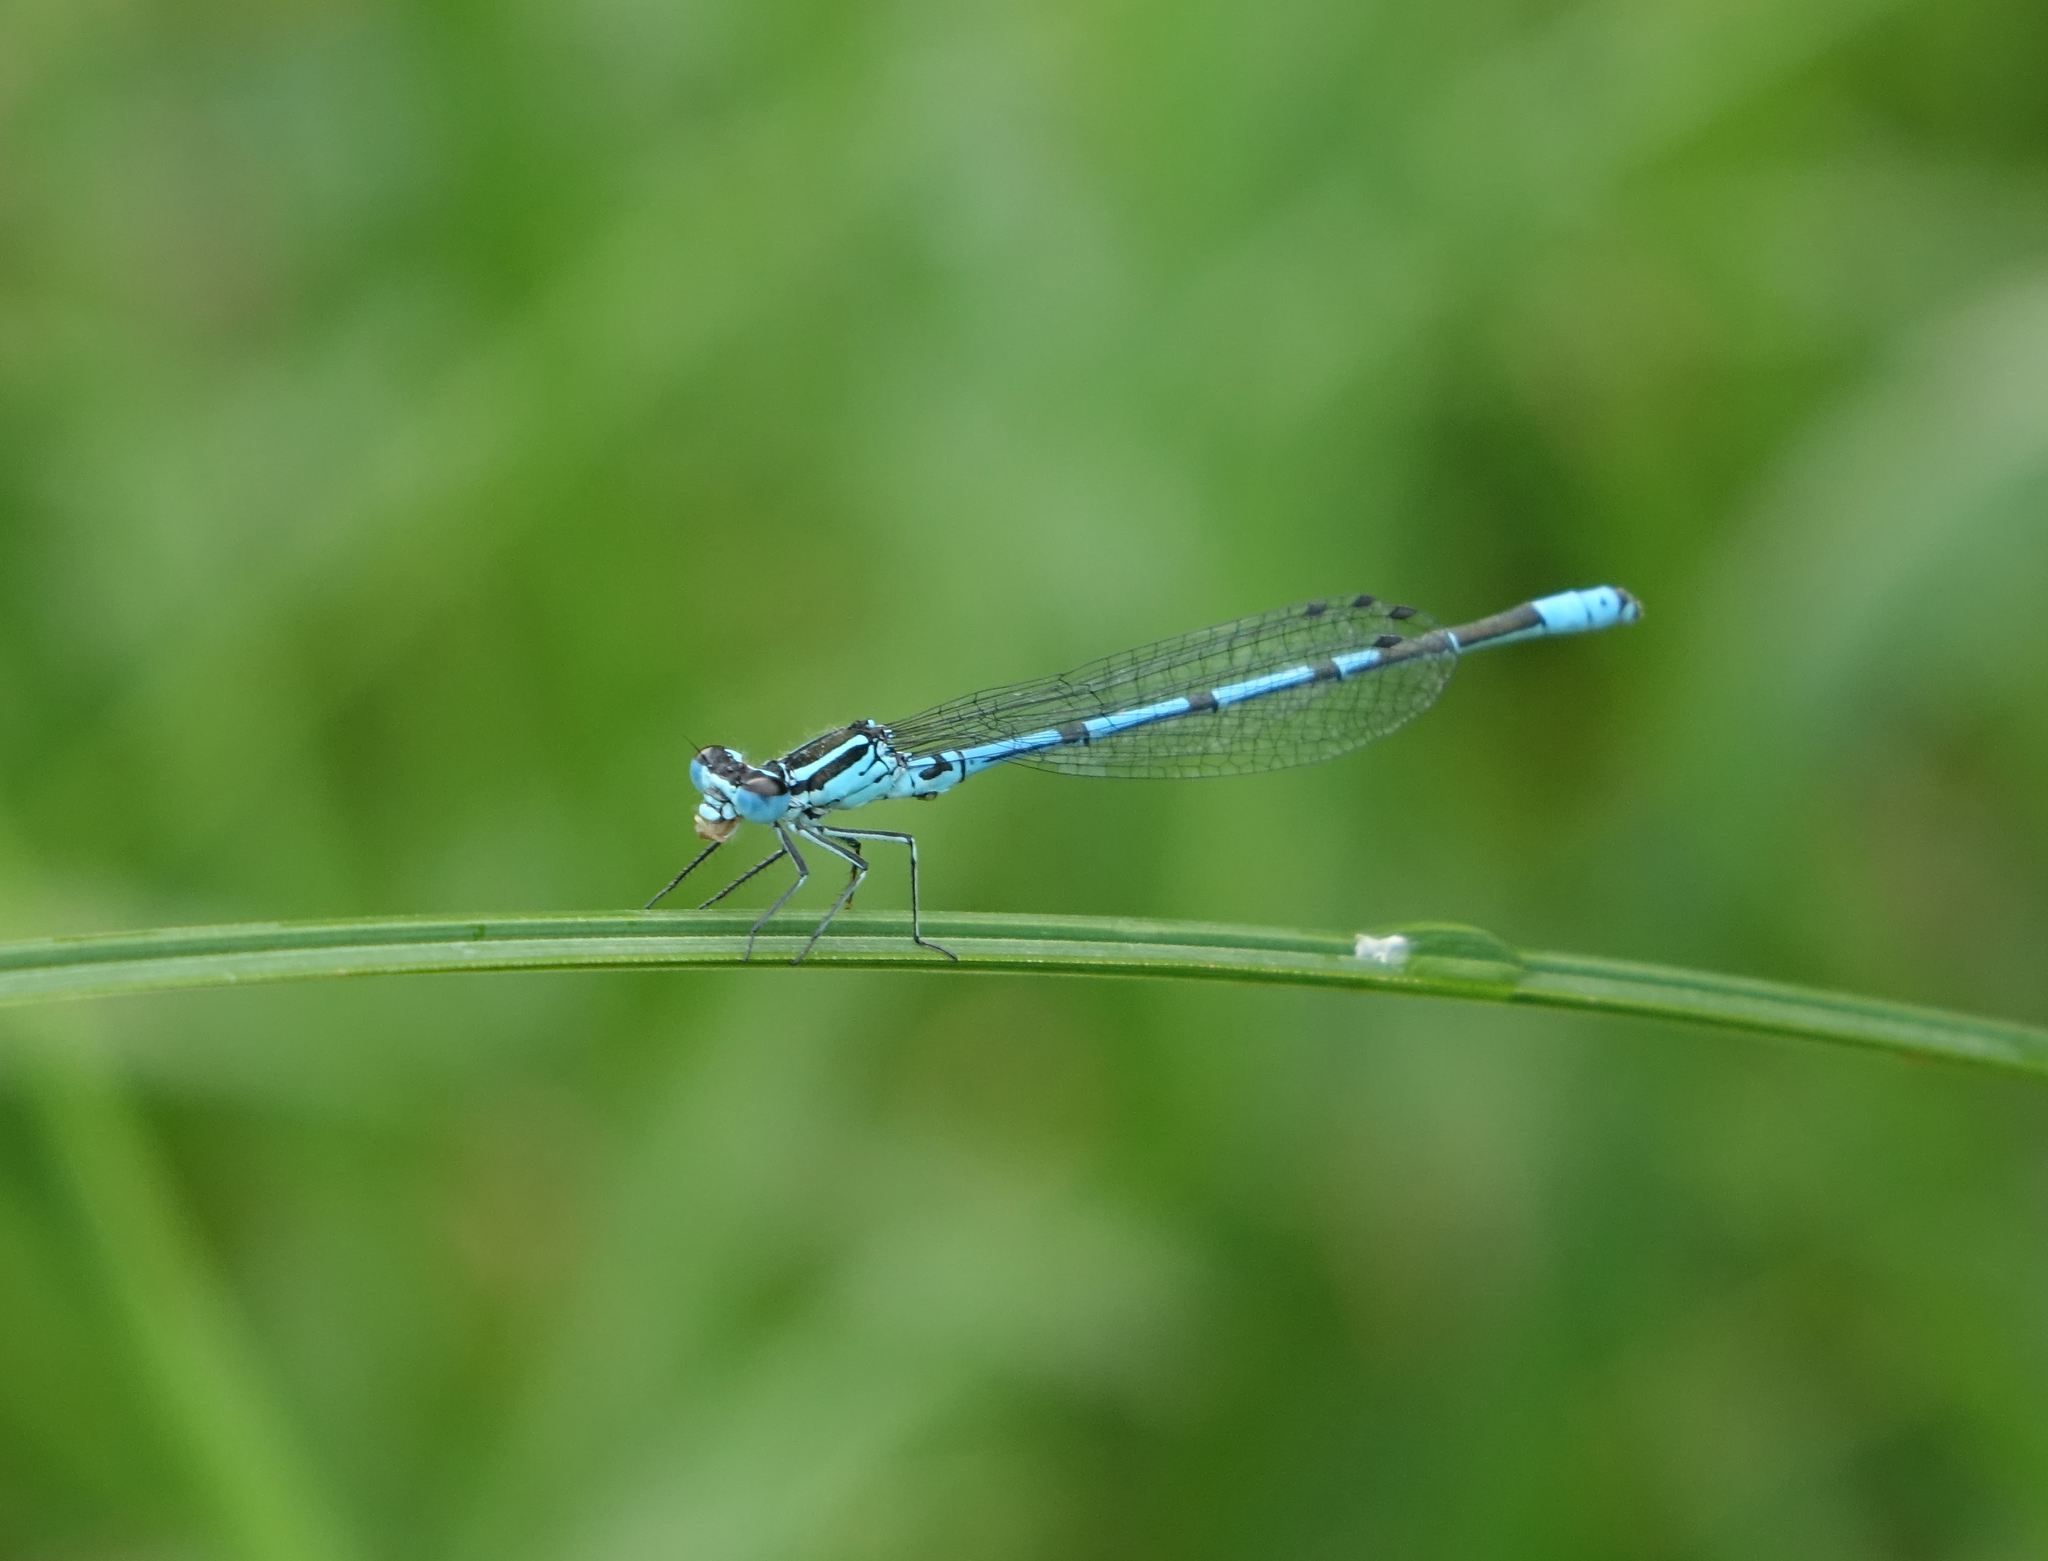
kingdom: Animalia
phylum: Arthropoda
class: Insecta
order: Odonata
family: Coenagrionidae
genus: Coenagrion
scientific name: Coenagrion puella
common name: Azure damselfly
